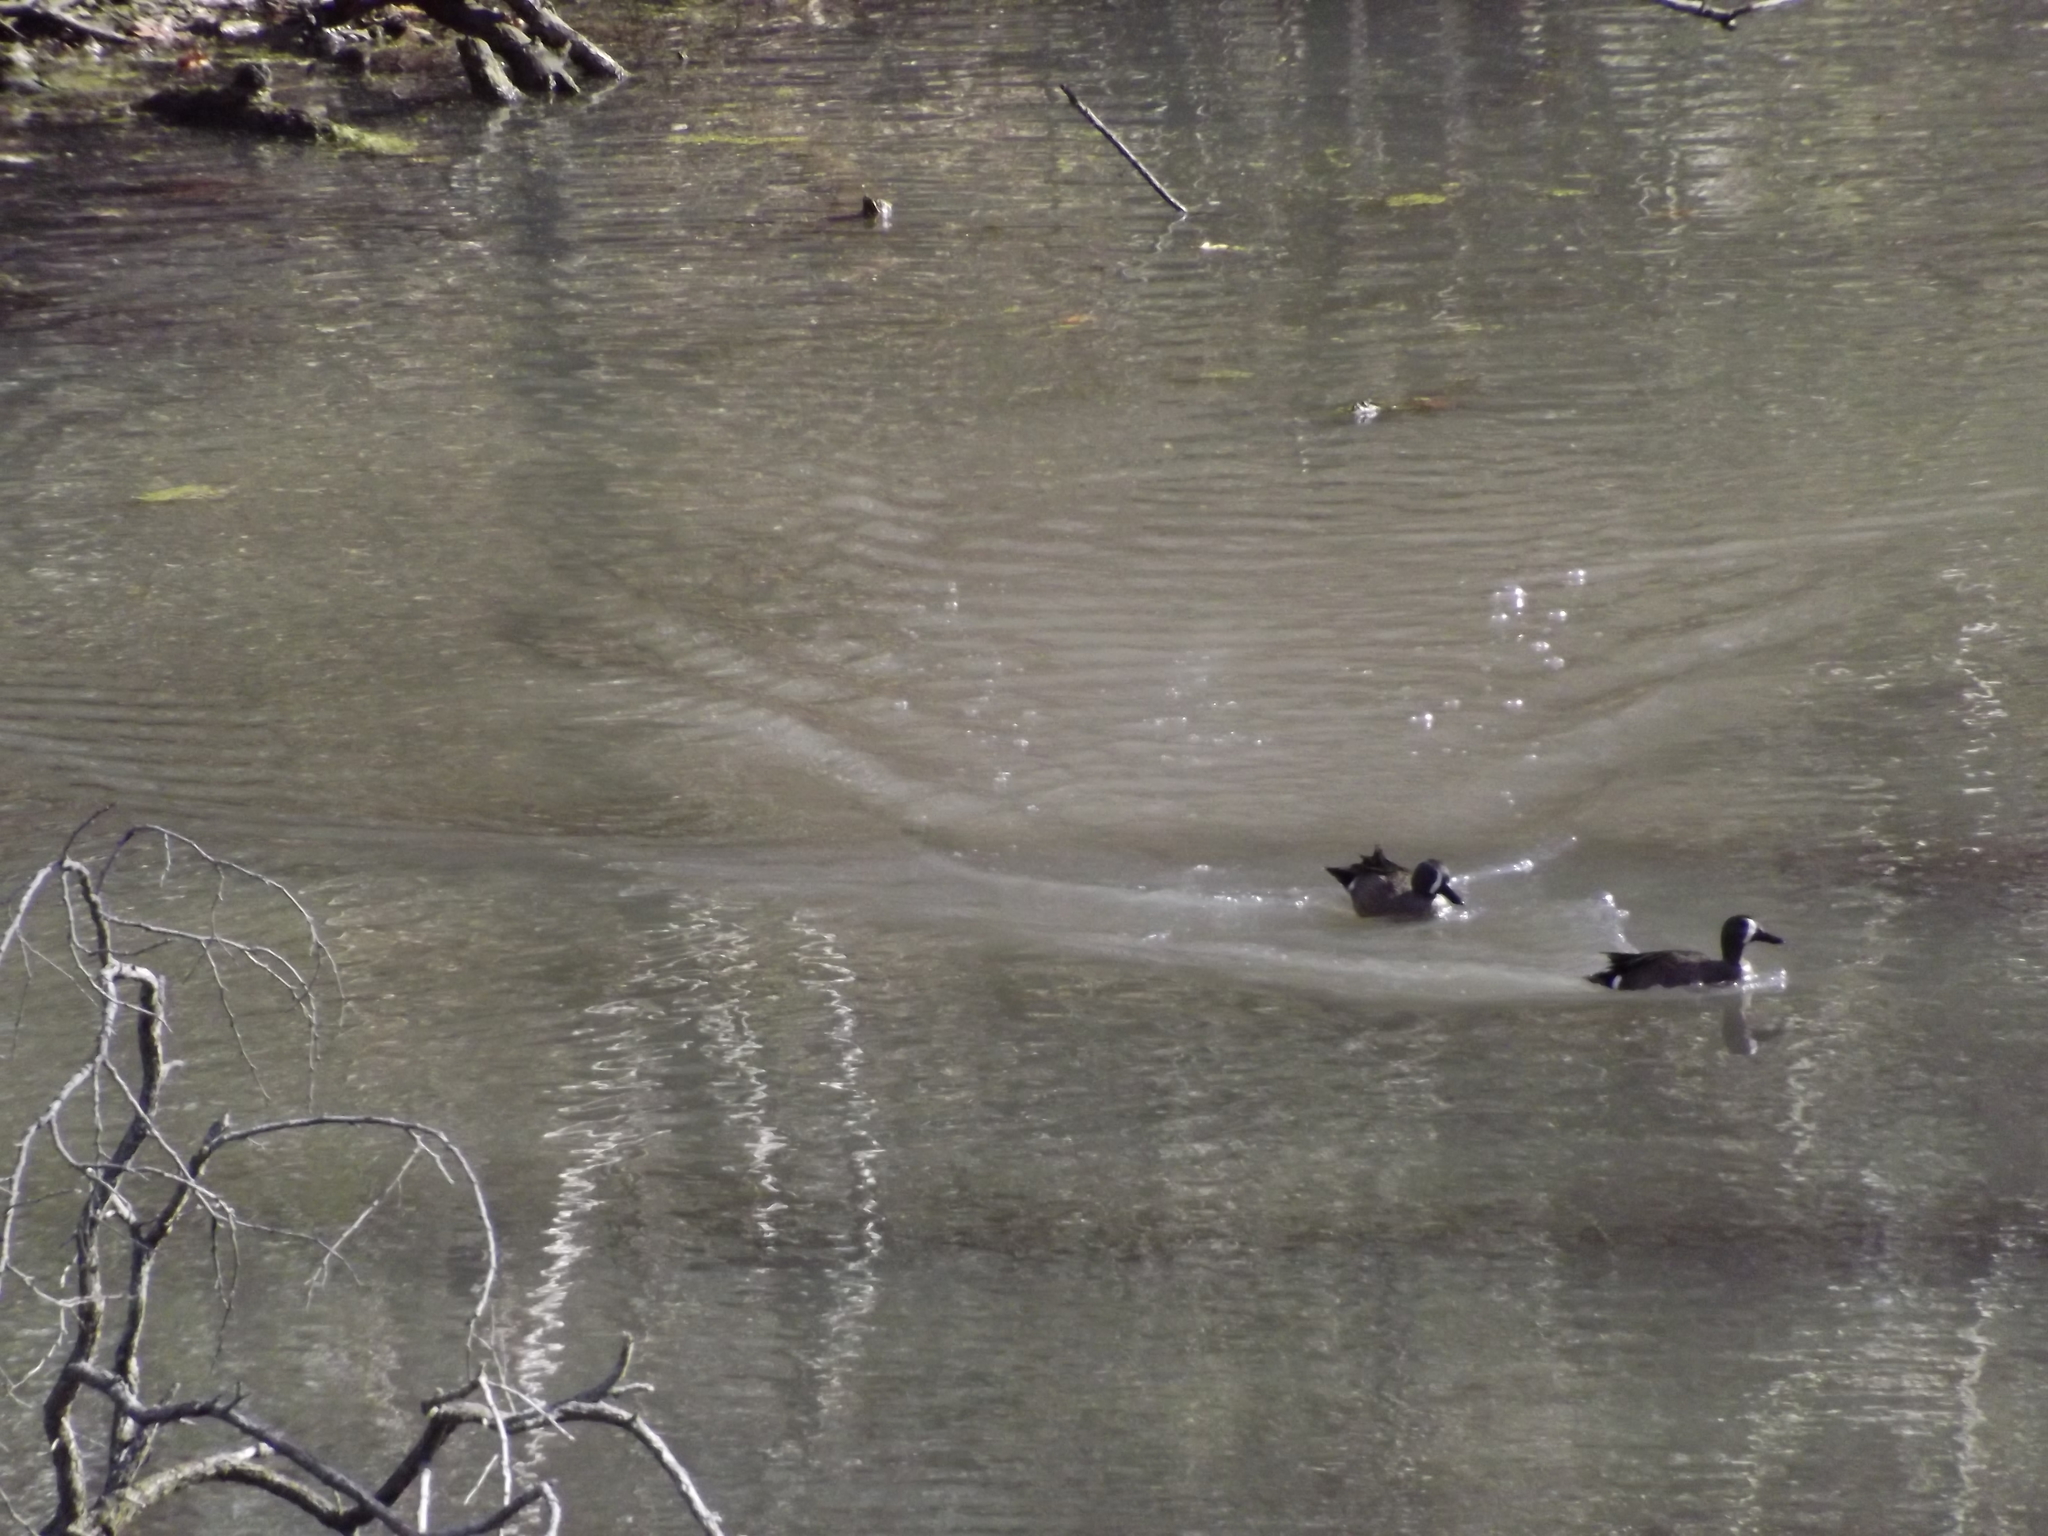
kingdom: Animalia
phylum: Chordata
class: Aves
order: Anseriformes
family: Anatidae
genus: Spatula
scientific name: Spatula discors
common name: Blue-winged teal
